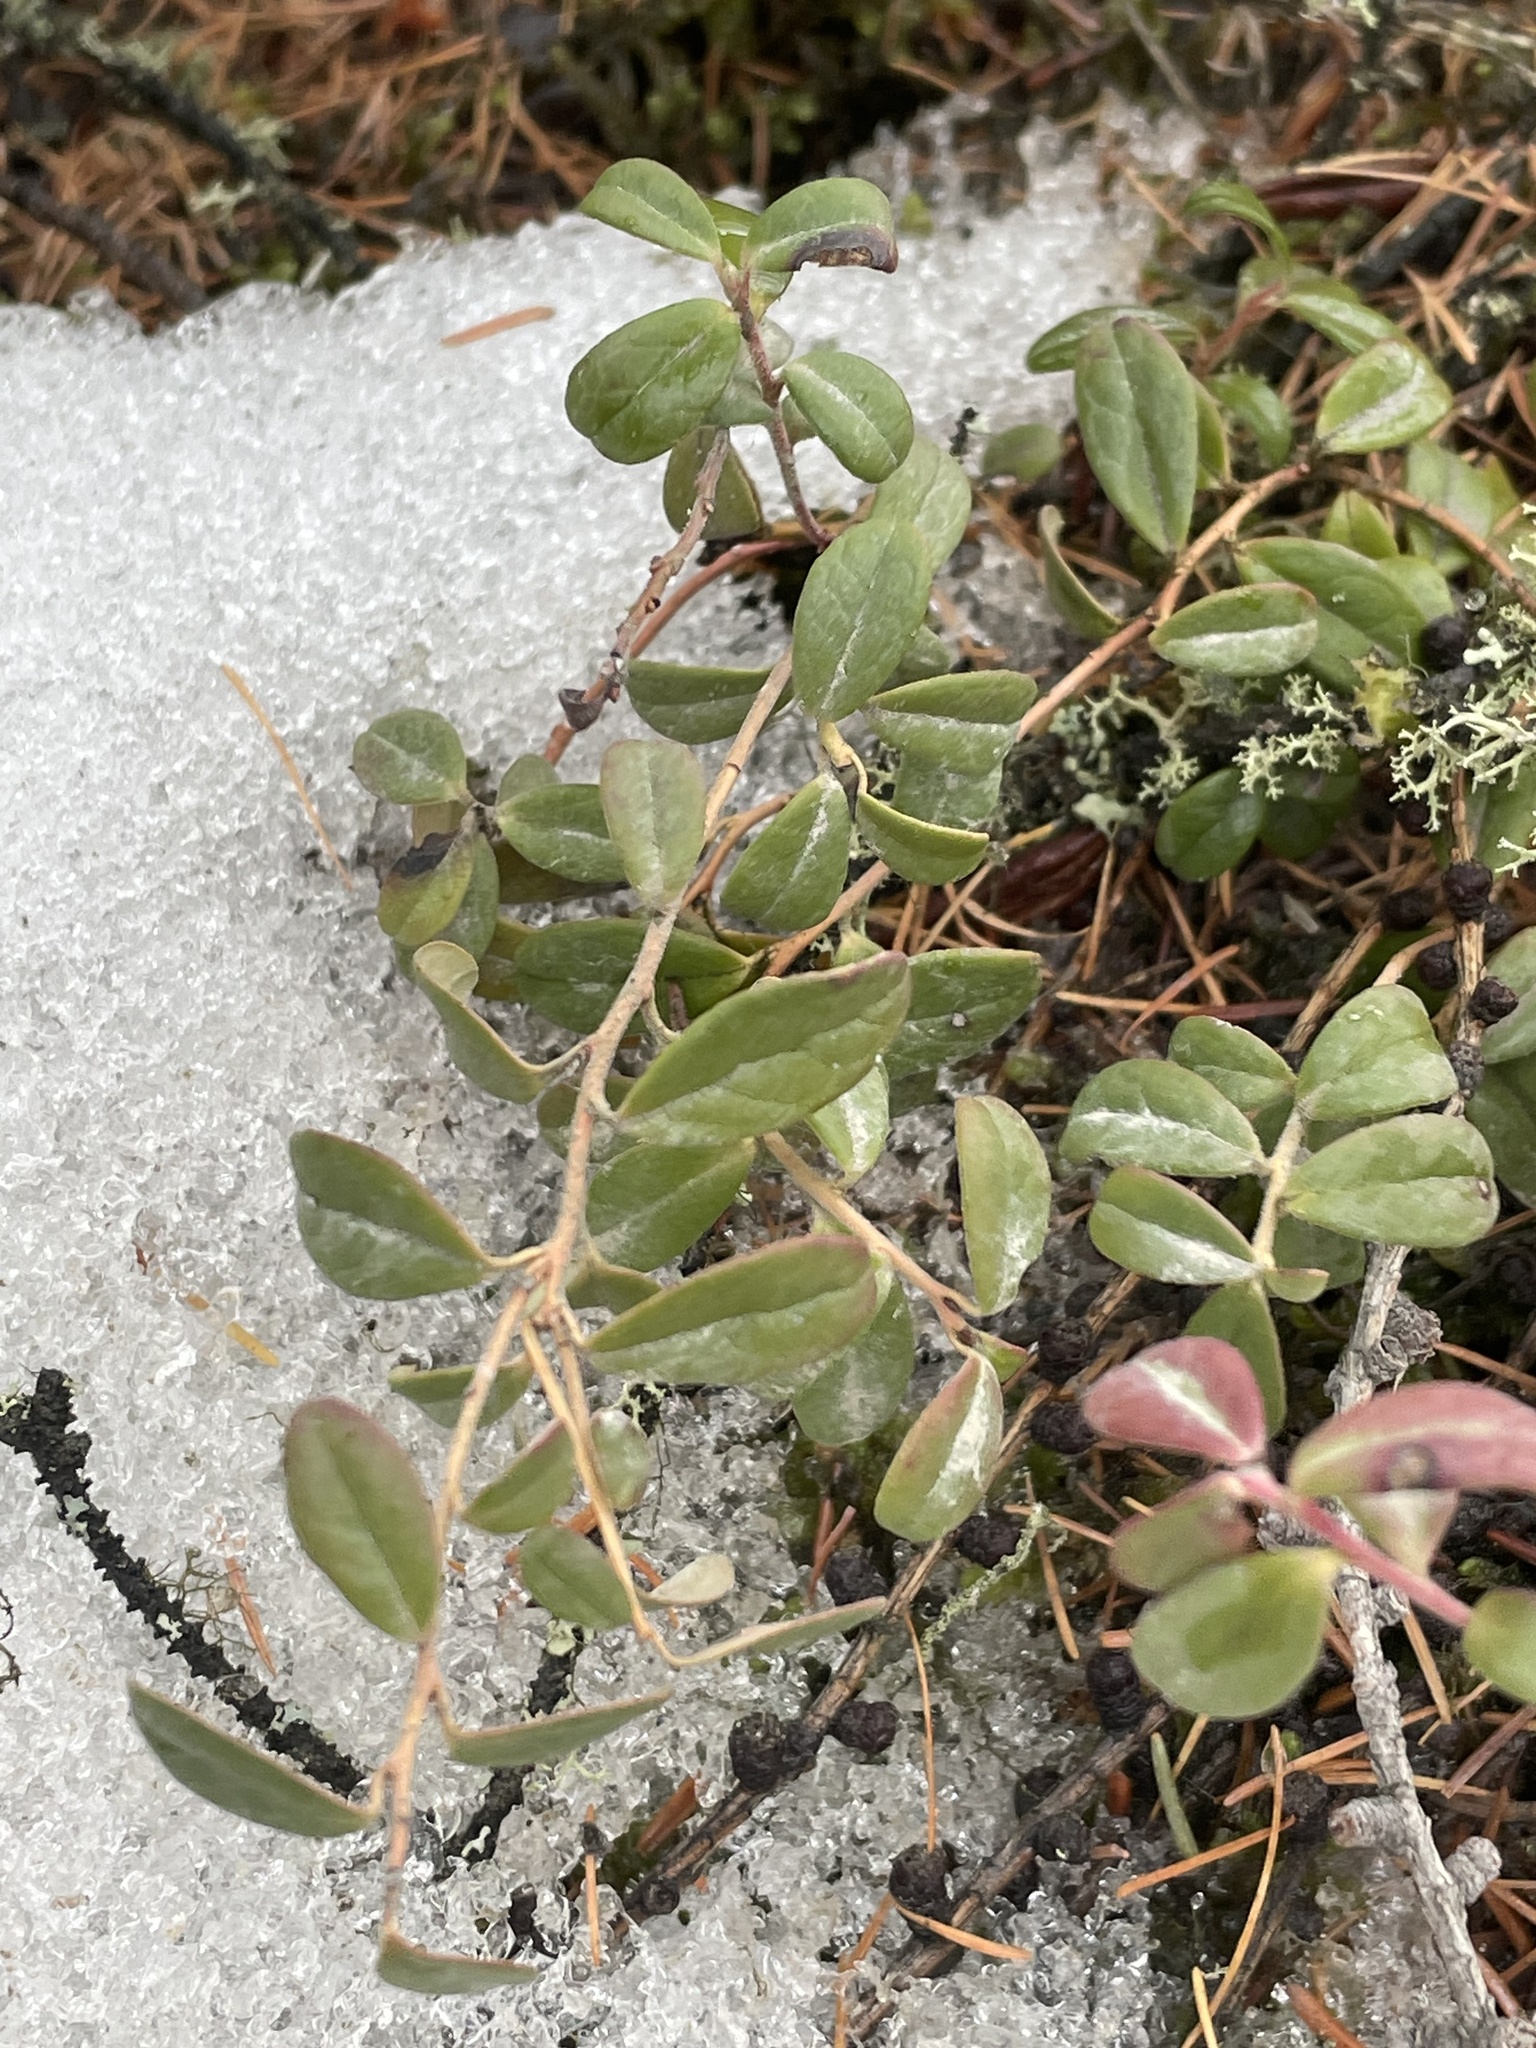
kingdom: Plantae
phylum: Tracheophyta
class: Magnoliopsida
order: Ericales
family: Ericaceae
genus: Vaccinium
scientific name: Vaccinium vitis-idaea
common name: Cowberry
